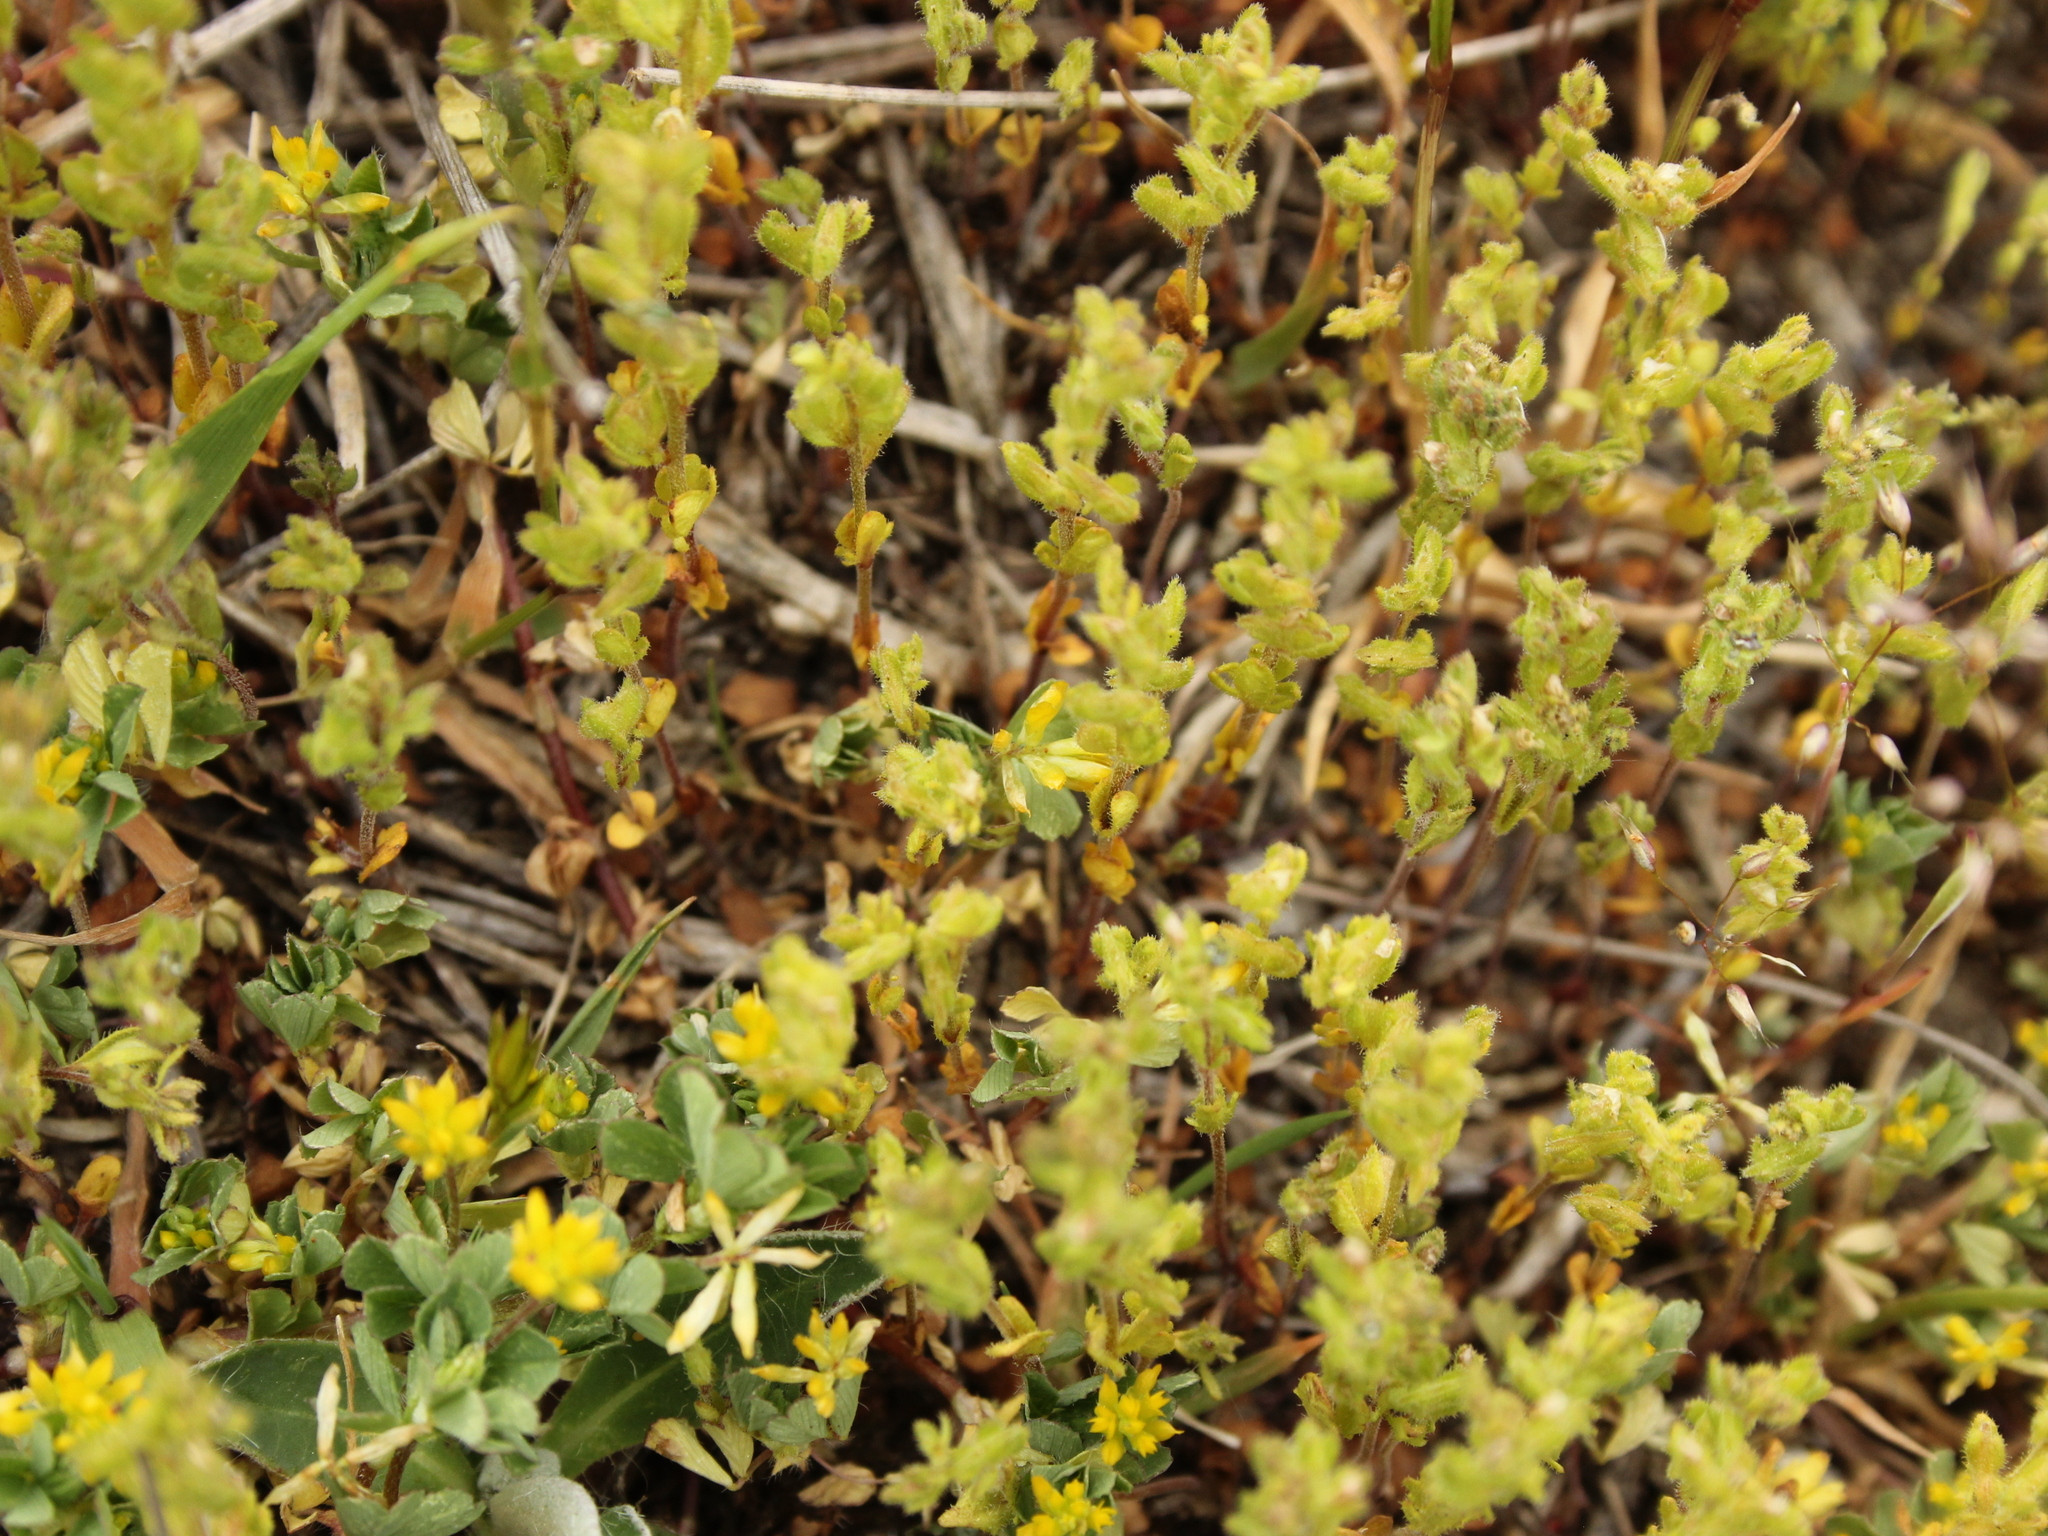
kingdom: Plantae
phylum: Tracheophyta
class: Magnoliopsida
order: Lamiales
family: Plantaginaceae
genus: Veronica
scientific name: Veronica verna
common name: Spring speedwell
